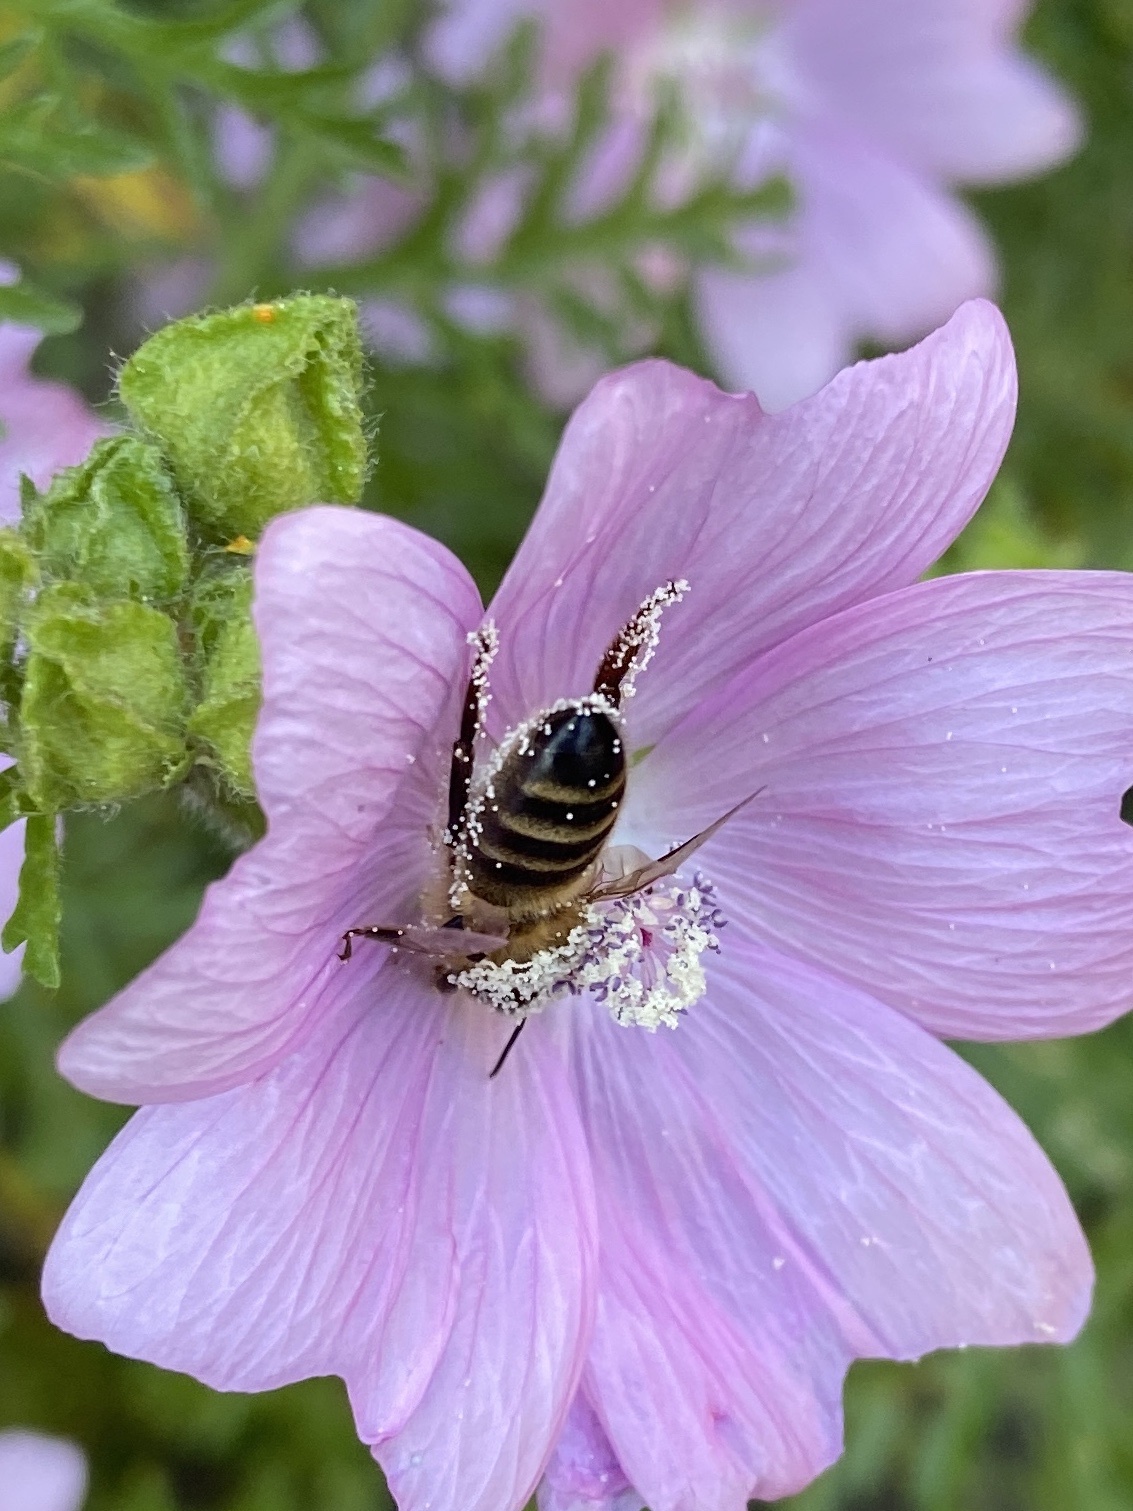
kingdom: Animalia
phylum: Arthropoda
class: Insecta
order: Hymenoptera
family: Apidae
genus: Apis
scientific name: Apis mellifera
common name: Honey bee
